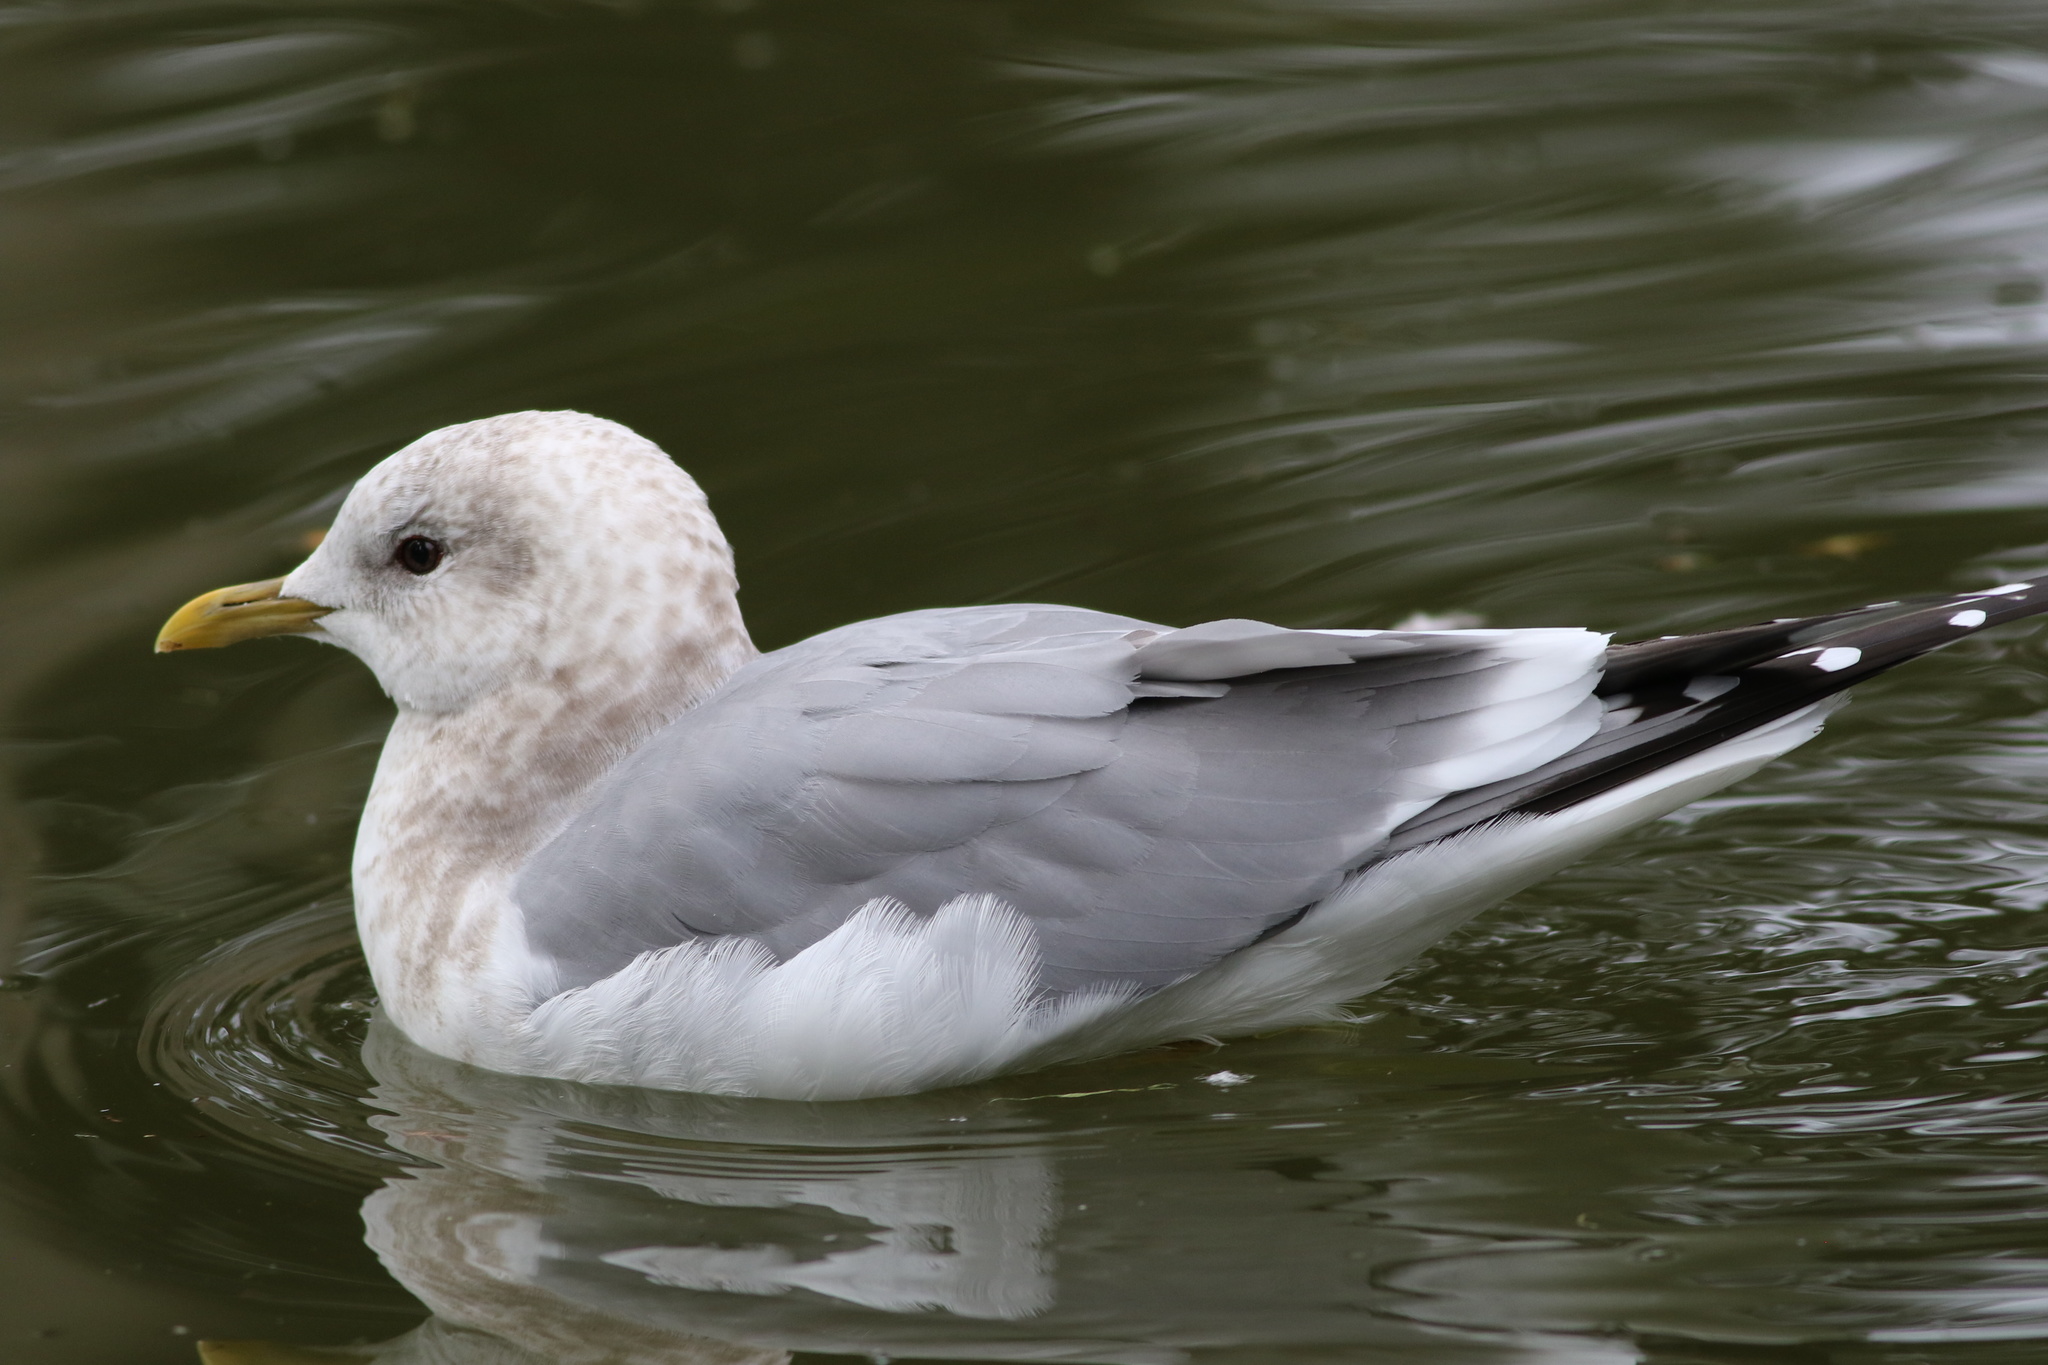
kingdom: Animalia
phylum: Chordata
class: Aves
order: Charadriiformes
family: Laridae
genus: Larus
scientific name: Larus brachyrhynchus
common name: Short-billed gull
